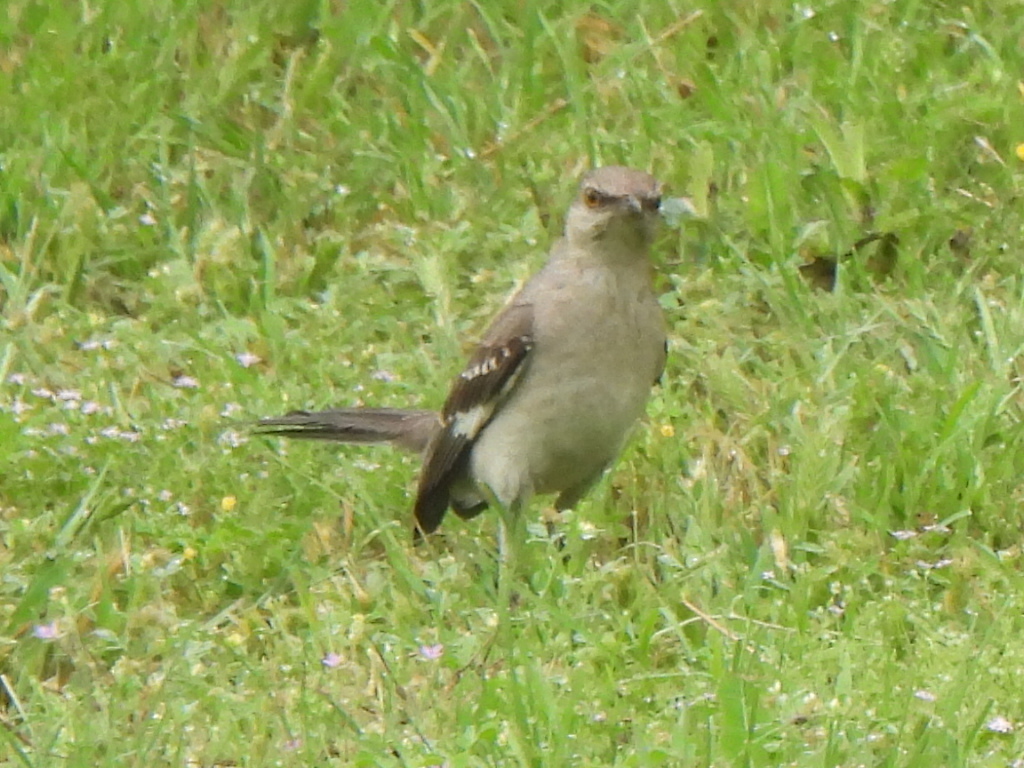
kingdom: Animalia
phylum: Chordata
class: Aves
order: Passeriformes
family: Mimidae
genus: Mimus
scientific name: Mimus polyglottos
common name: Northern mockingbird
